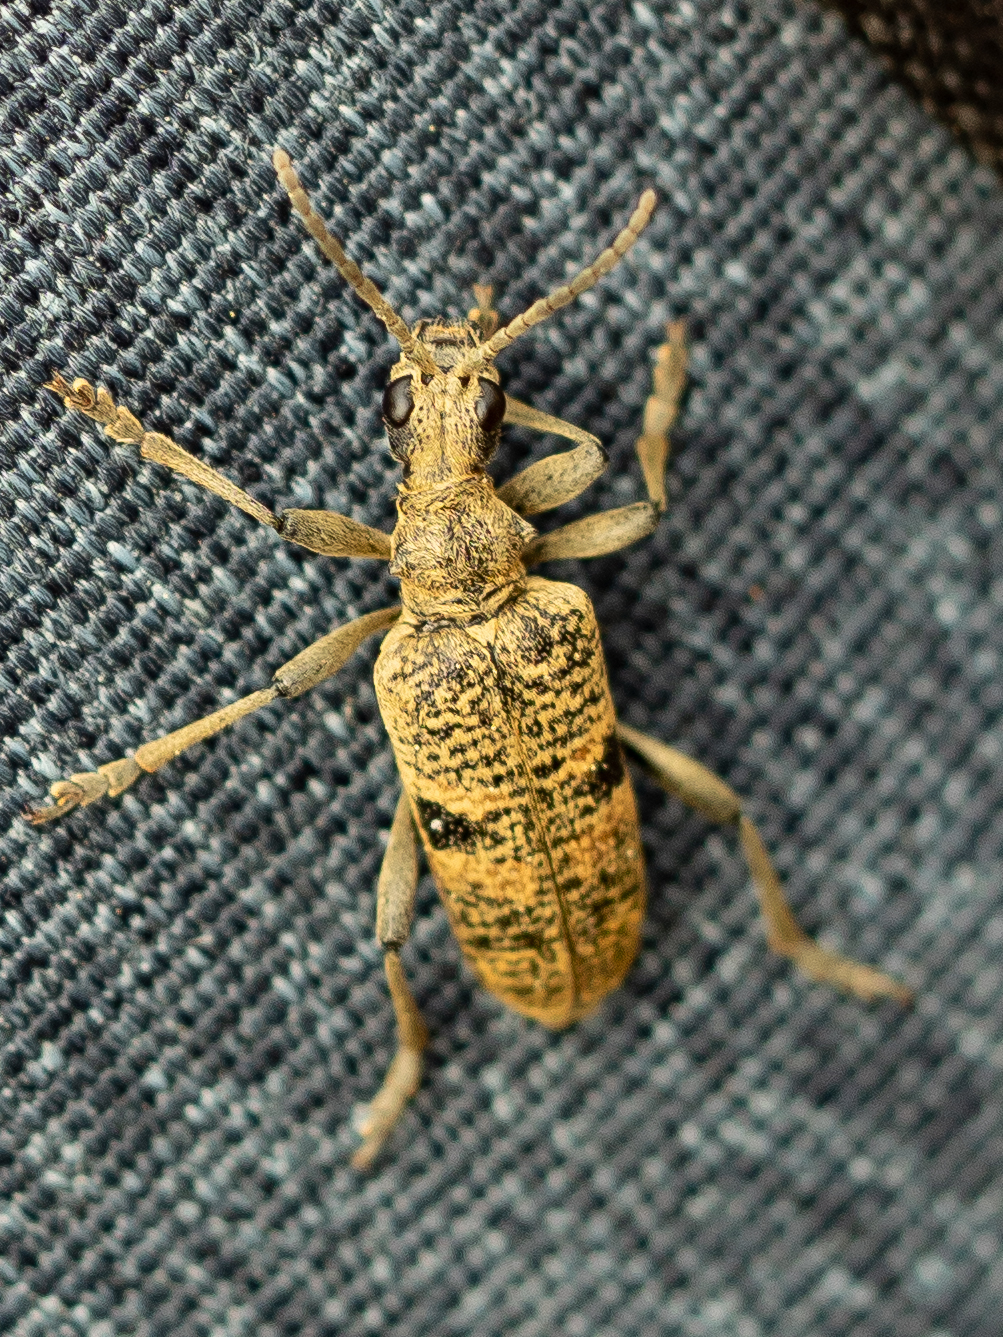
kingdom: Animalia
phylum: Arthropoda
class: Insecta
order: Coleoptera
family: Cerambycidae
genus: Rhagium
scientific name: Rhagium mordax
